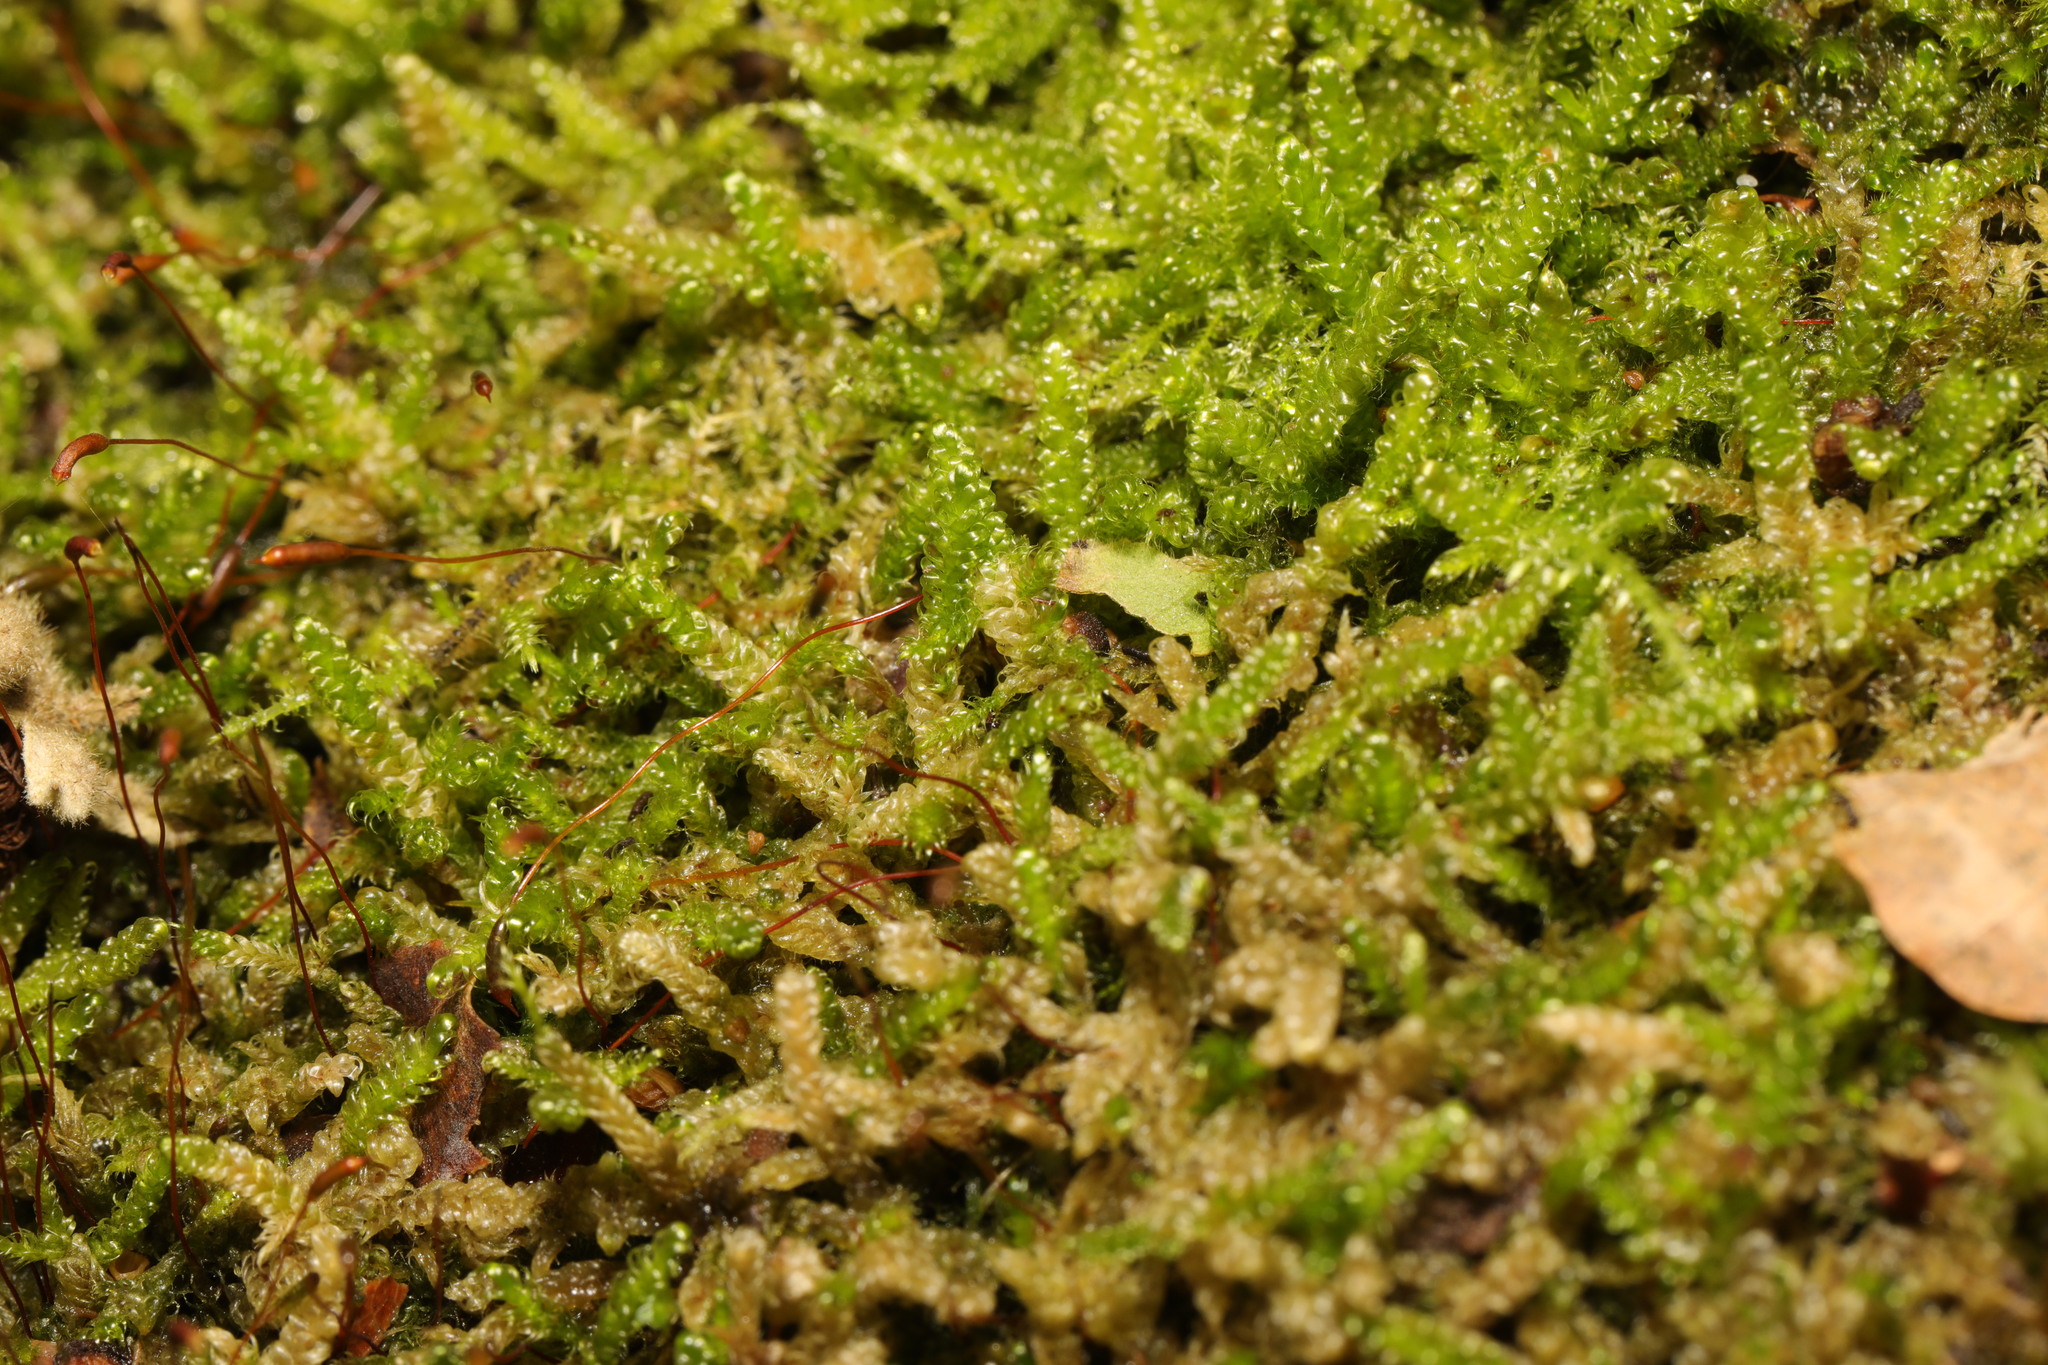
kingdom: Plantae
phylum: Bryophyta
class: Bryopsida
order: Hypnales
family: Hypnaceae
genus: Hypnum
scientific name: Hypnum cupressiforme
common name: Cypress-leaved plait-moss
